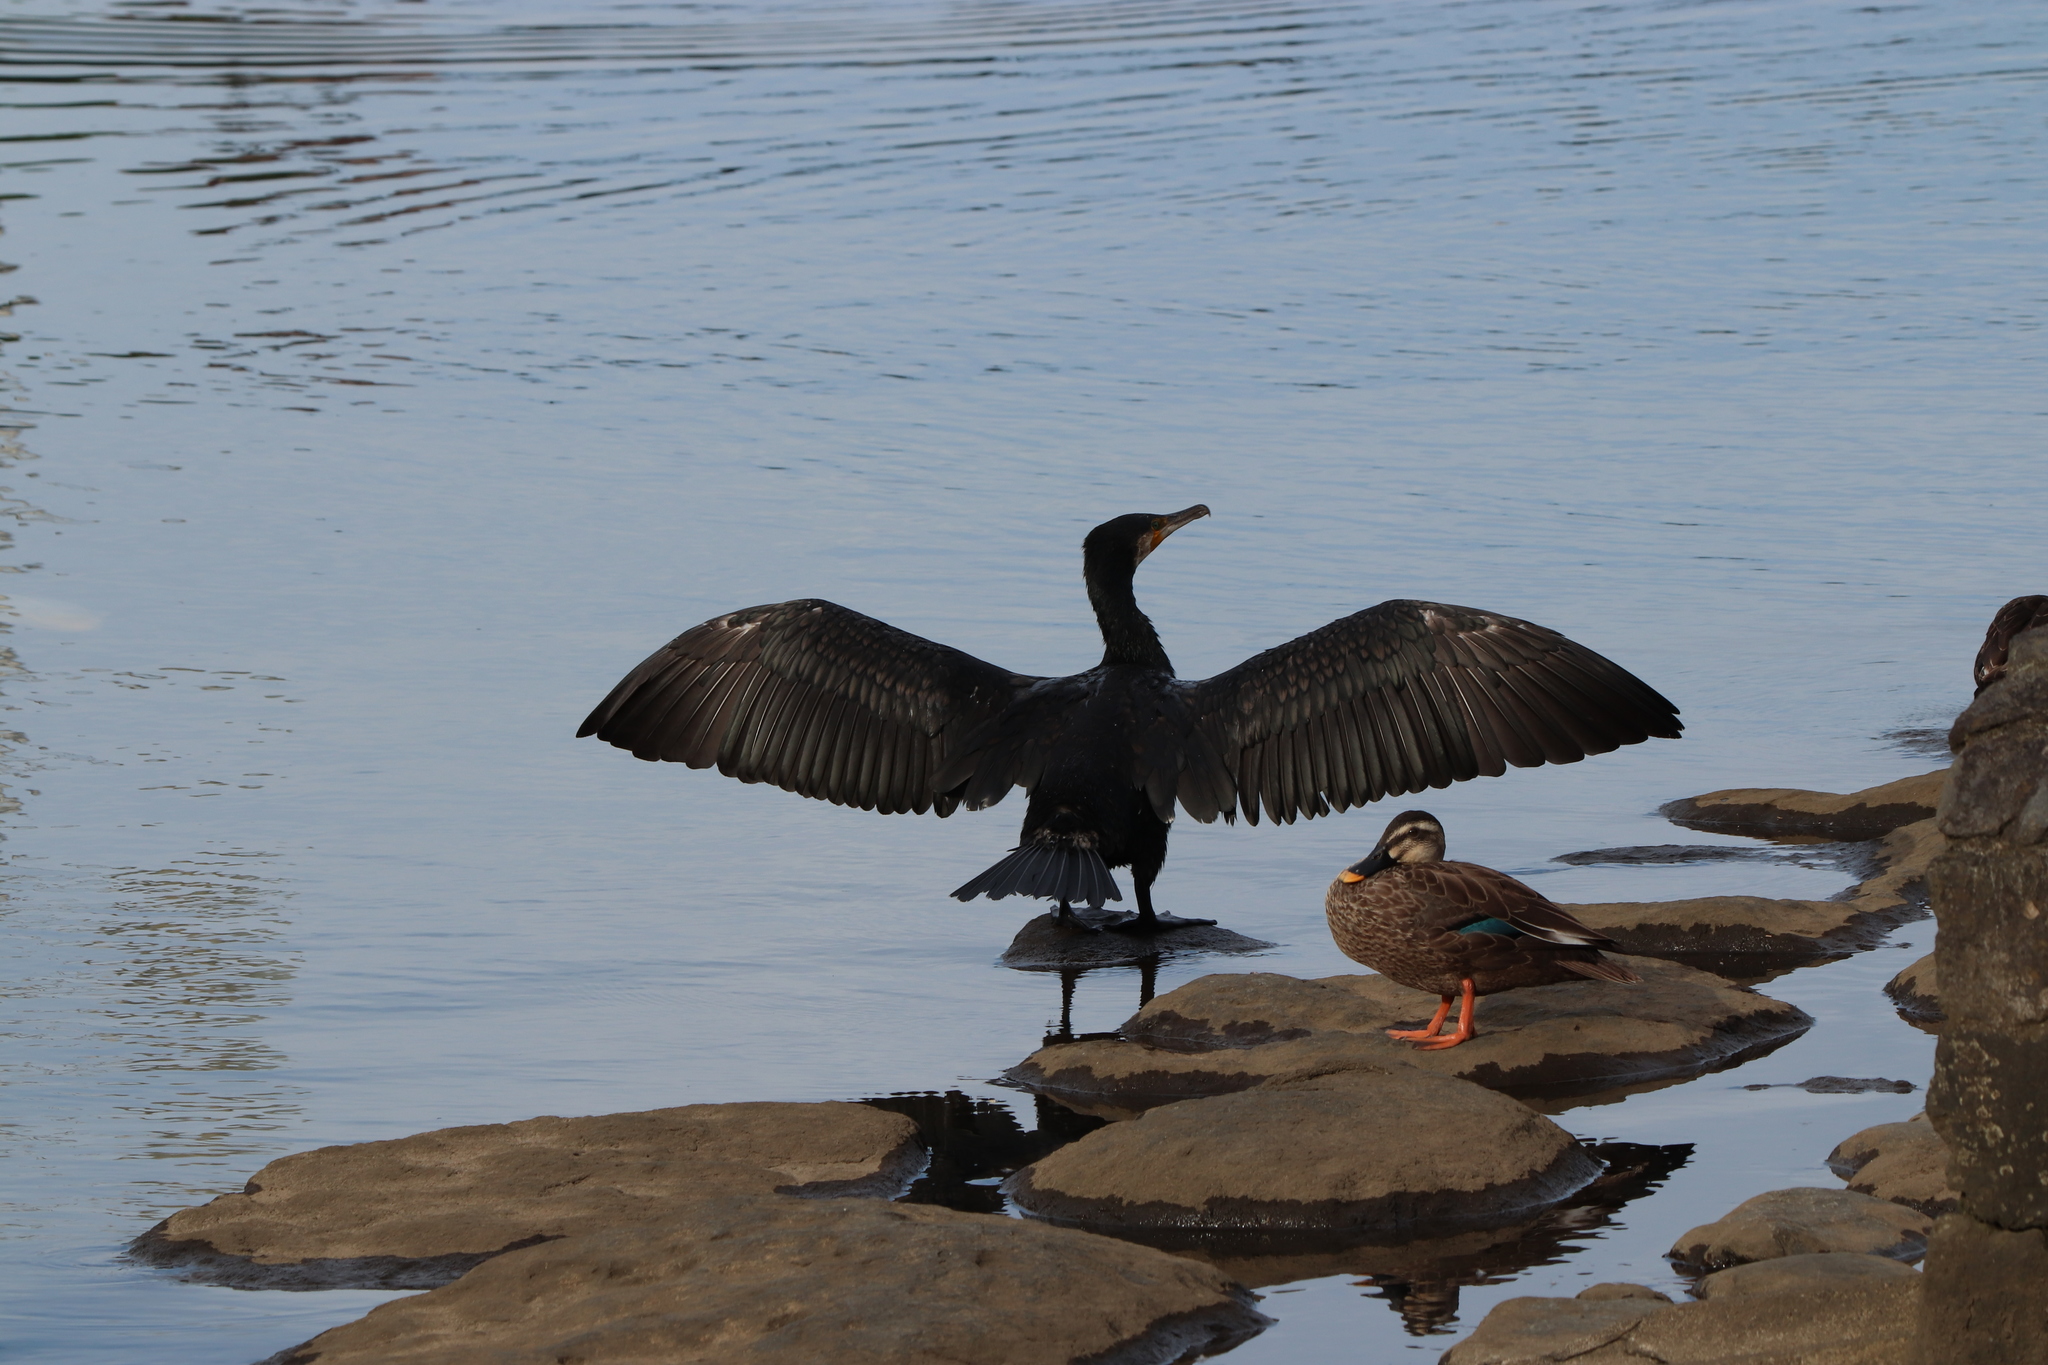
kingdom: Animalia
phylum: Chordata
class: Aves
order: Suliformes
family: Phalacrocoracidae
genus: Phalacrocorax
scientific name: Phalacrocorax carbo
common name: Great cormorant
